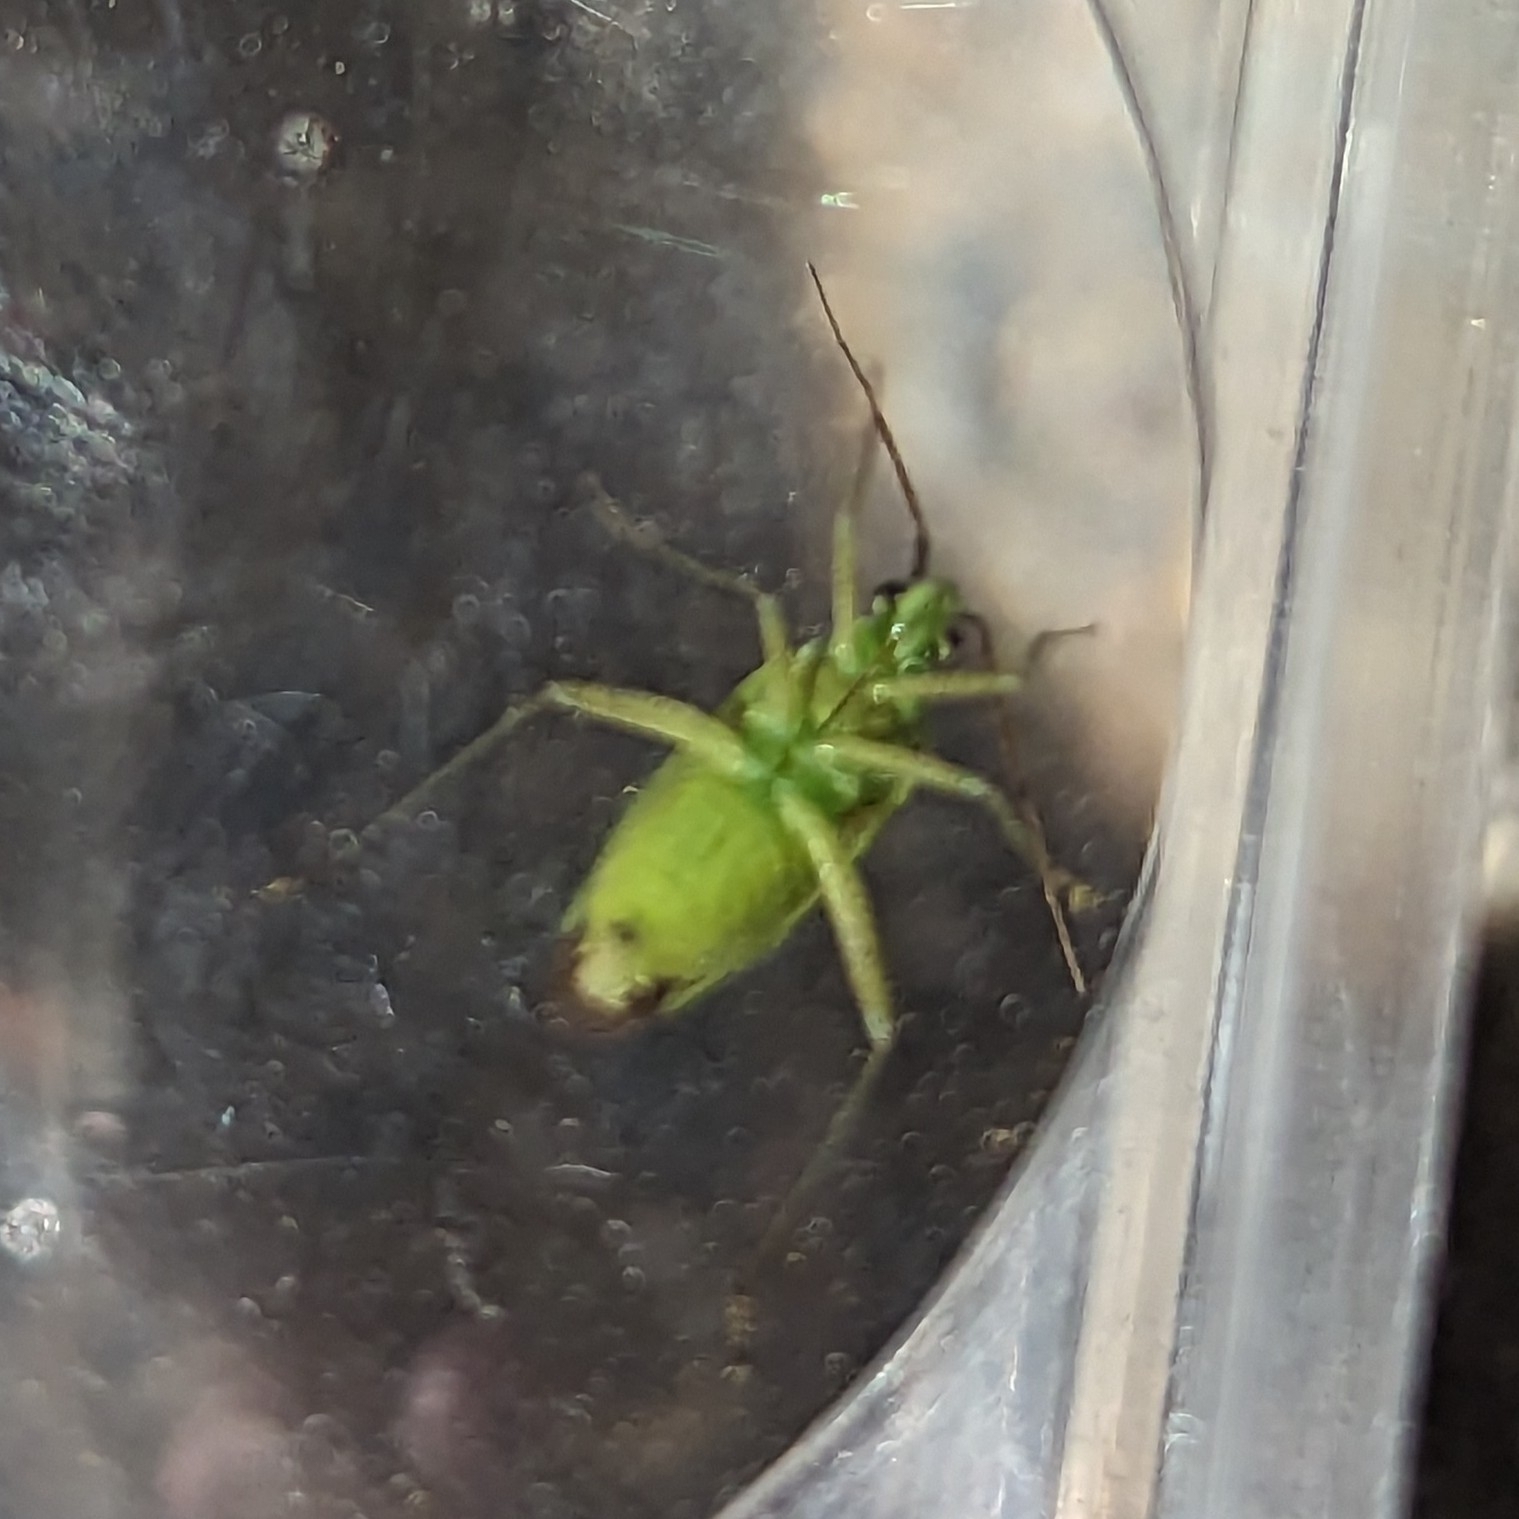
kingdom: Animalia
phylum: Arthropoda
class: Insecta
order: Hemiptera
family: Miridae
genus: Closterotomus
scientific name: Closterotomus norvegicus
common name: Plant bug
